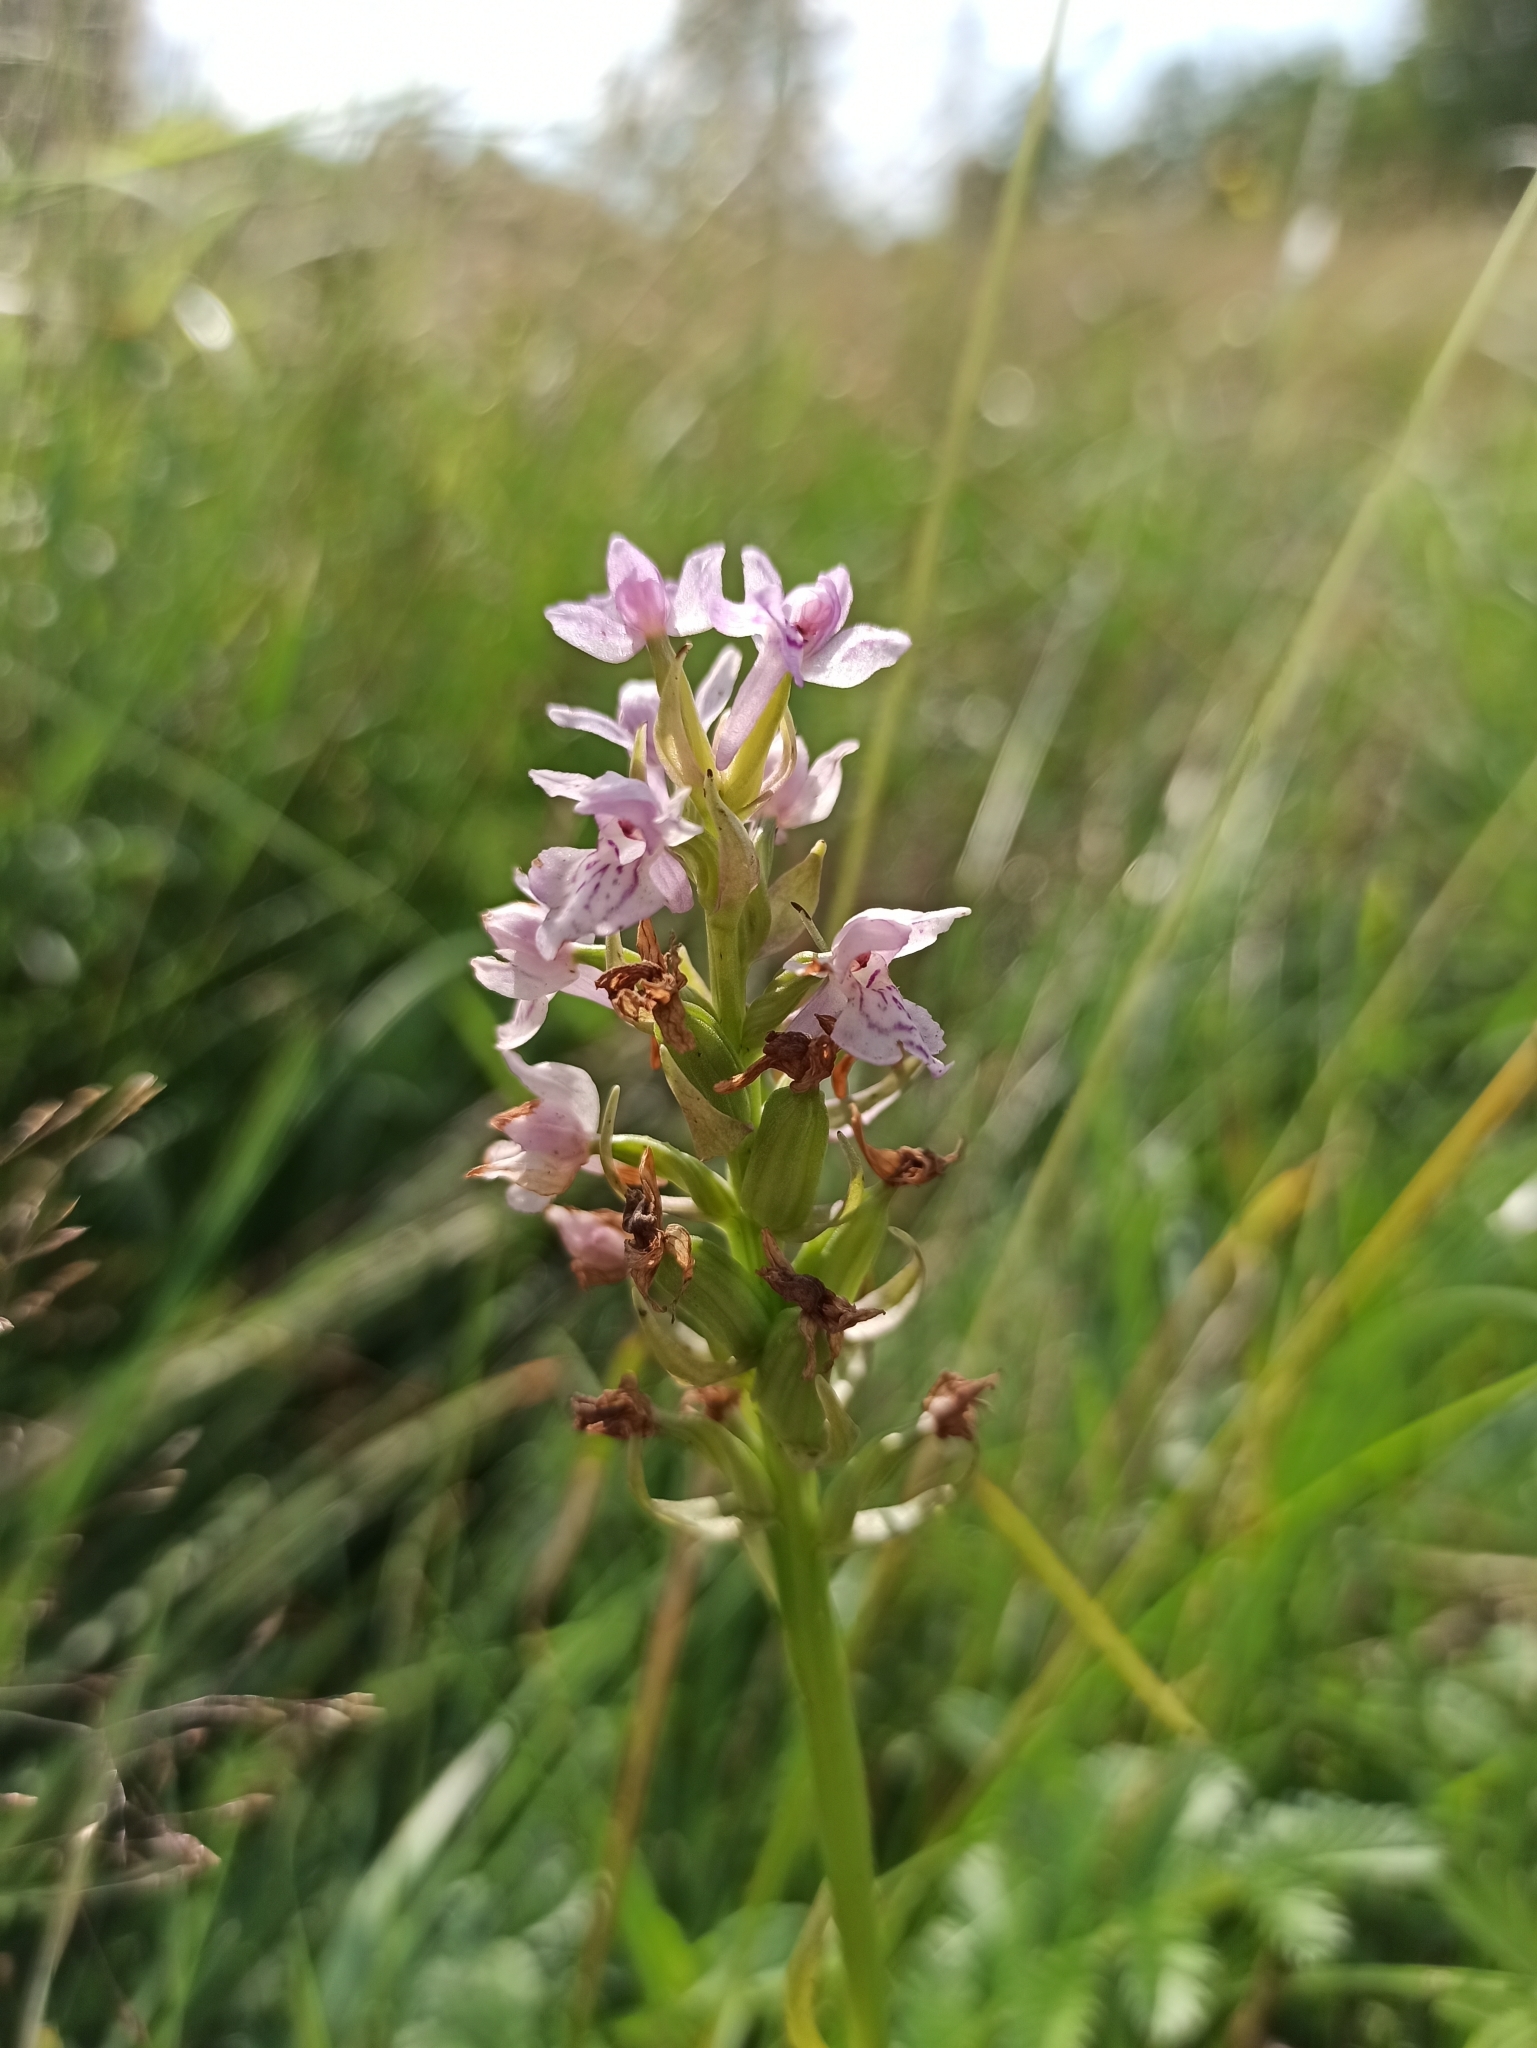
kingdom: Plantae
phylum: Tracheophyta
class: Liliopsida
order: Asparagales
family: Orchidaceae
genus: Dactylorhiza
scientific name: Dactylorhiza majalis
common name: Marsh orchid
